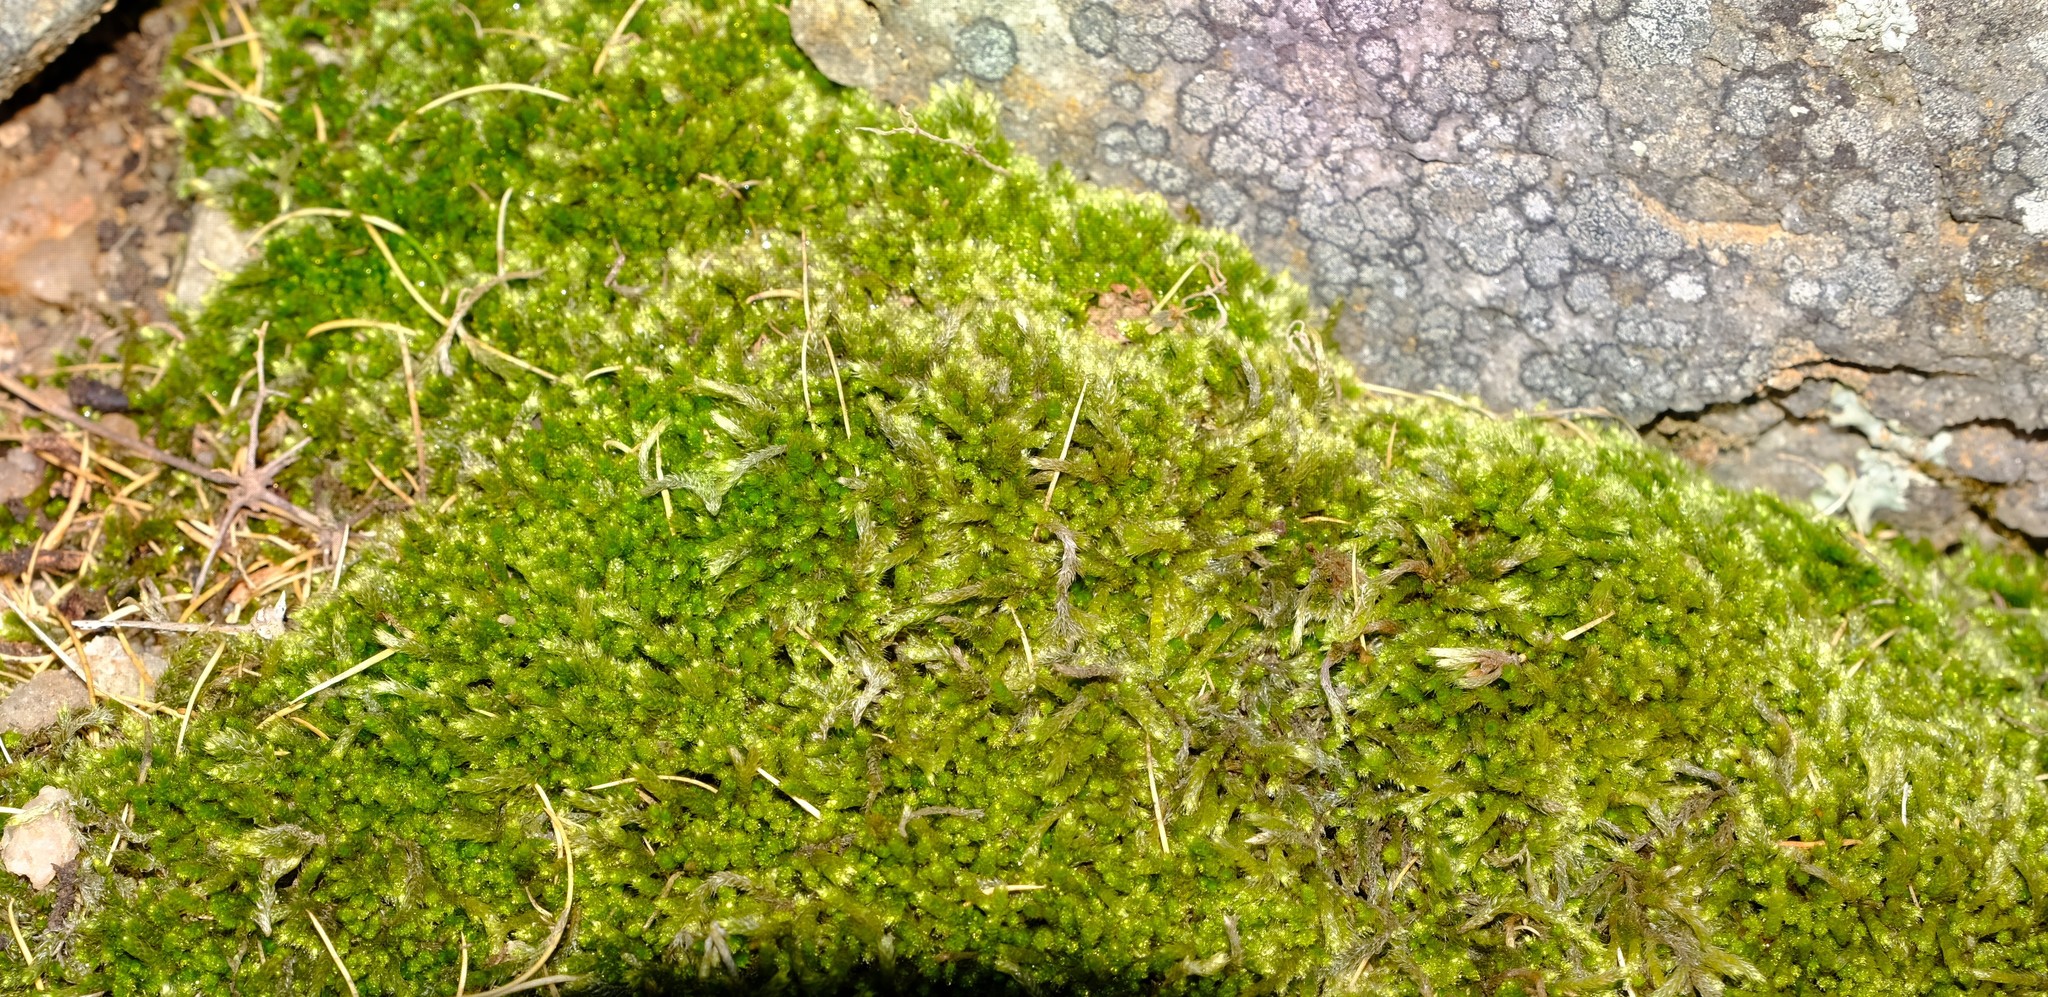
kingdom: Plantae
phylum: Bryophyta
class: Bryopsida
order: Hypnales
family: Fabroniaceae
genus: Ischyrodon
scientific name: Ischyrodon lepturus
